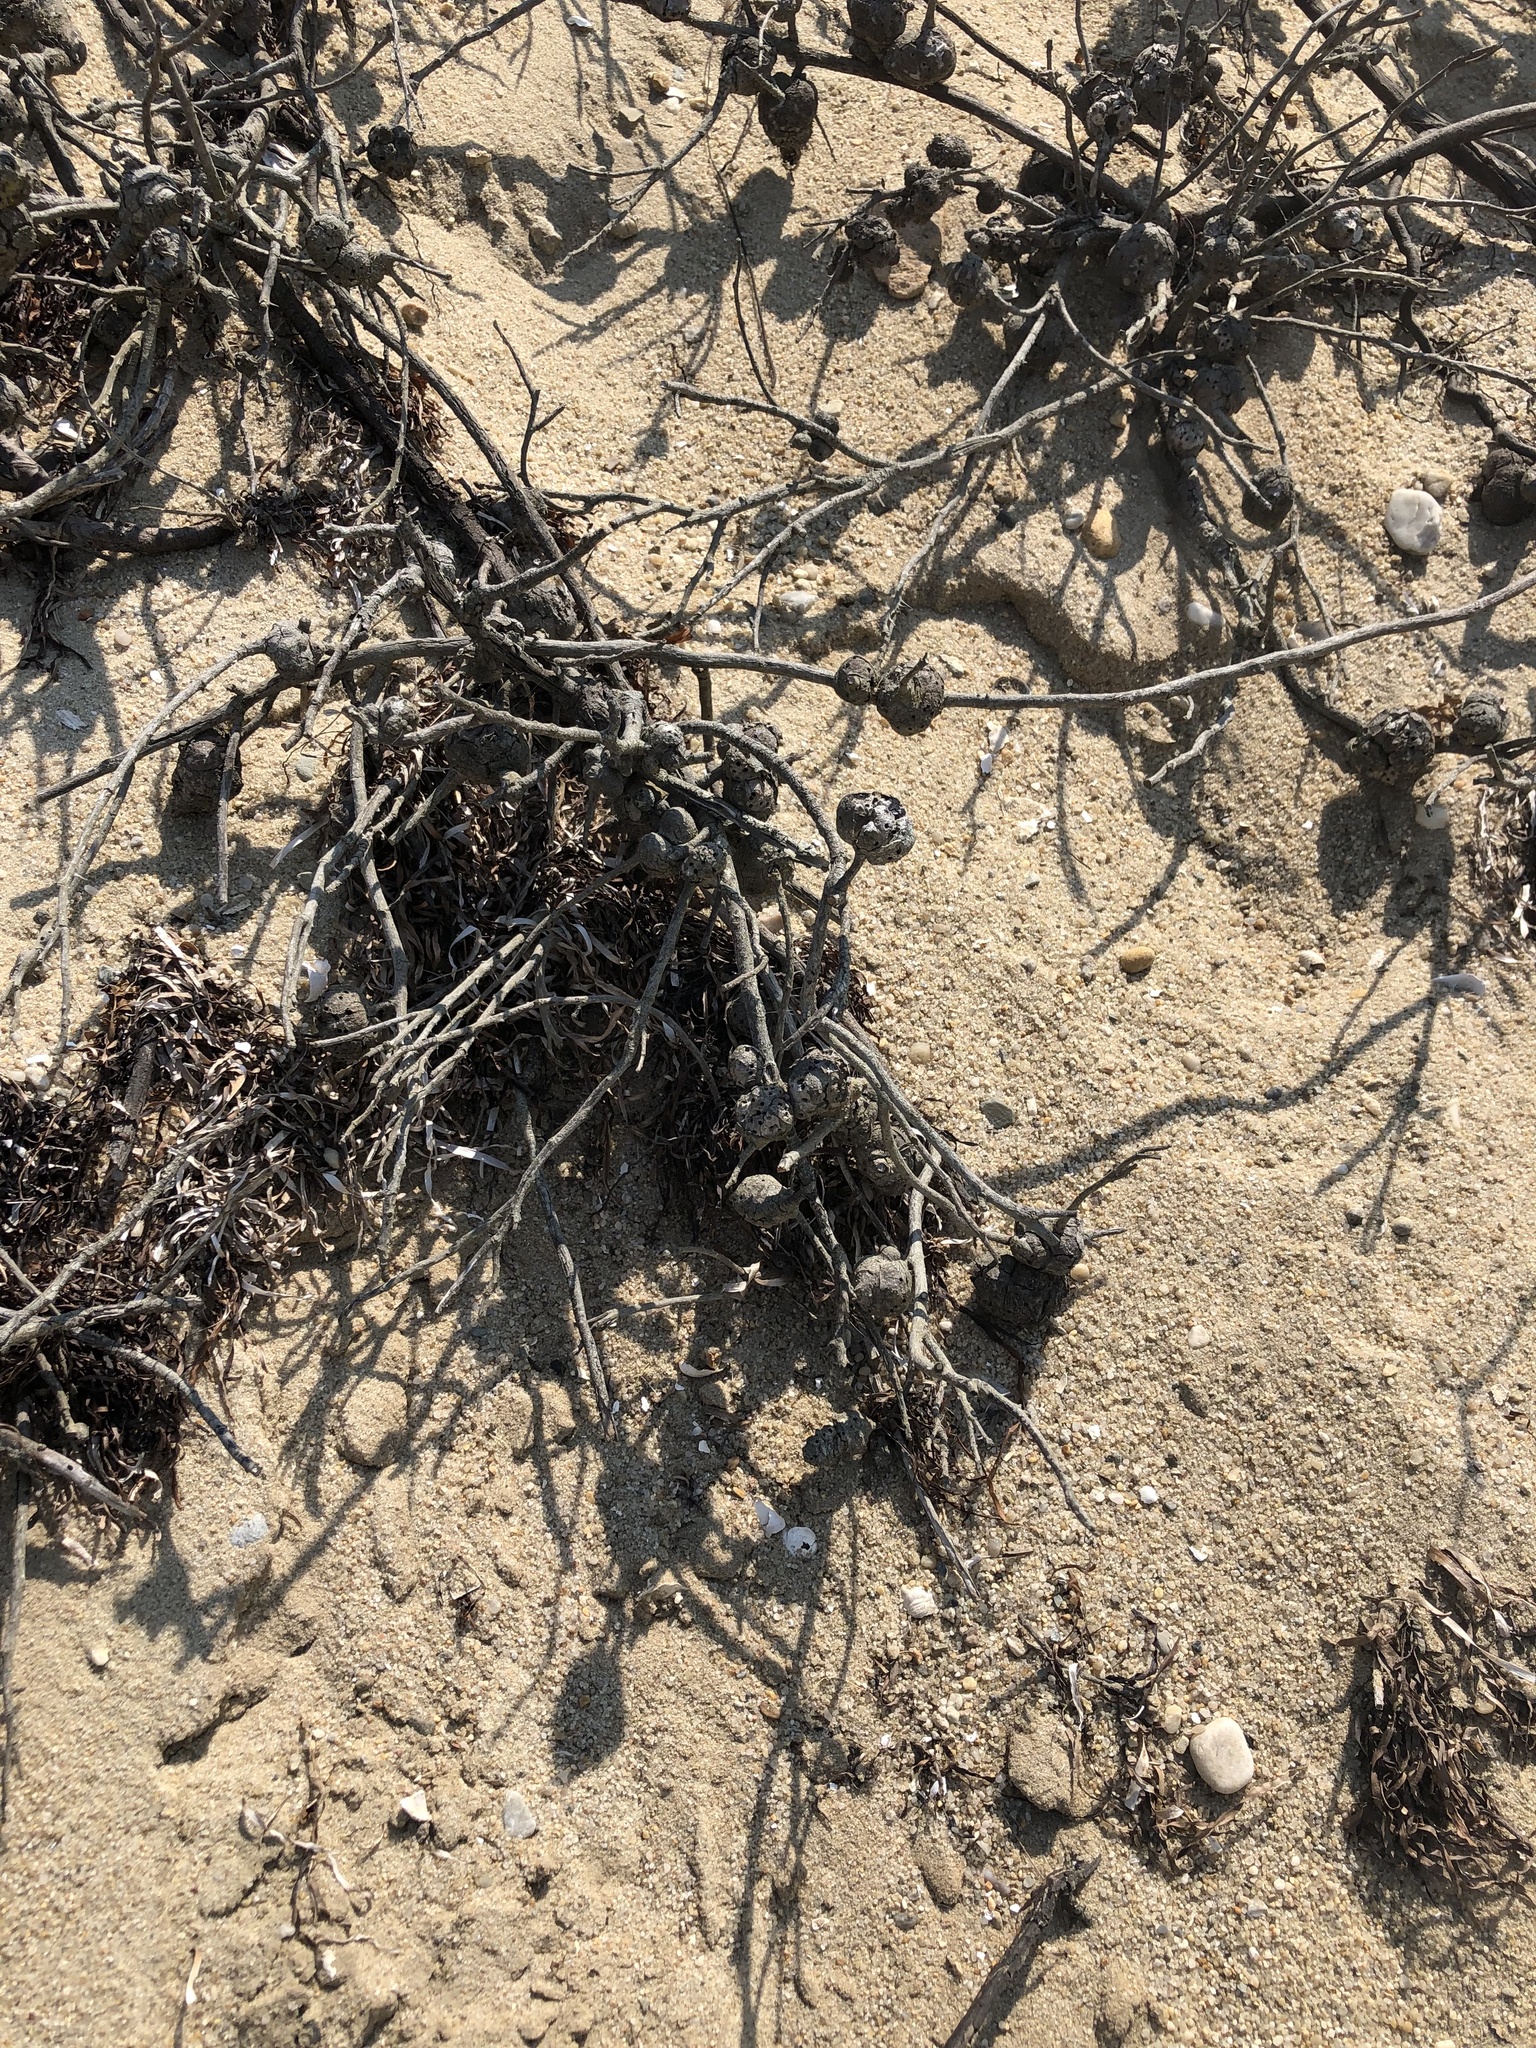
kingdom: Animalia
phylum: Arthropoda
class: Insecta
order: Hymenoptera
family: Cynipidae
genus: Diplolepis
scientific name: Diplolepis spinosa
